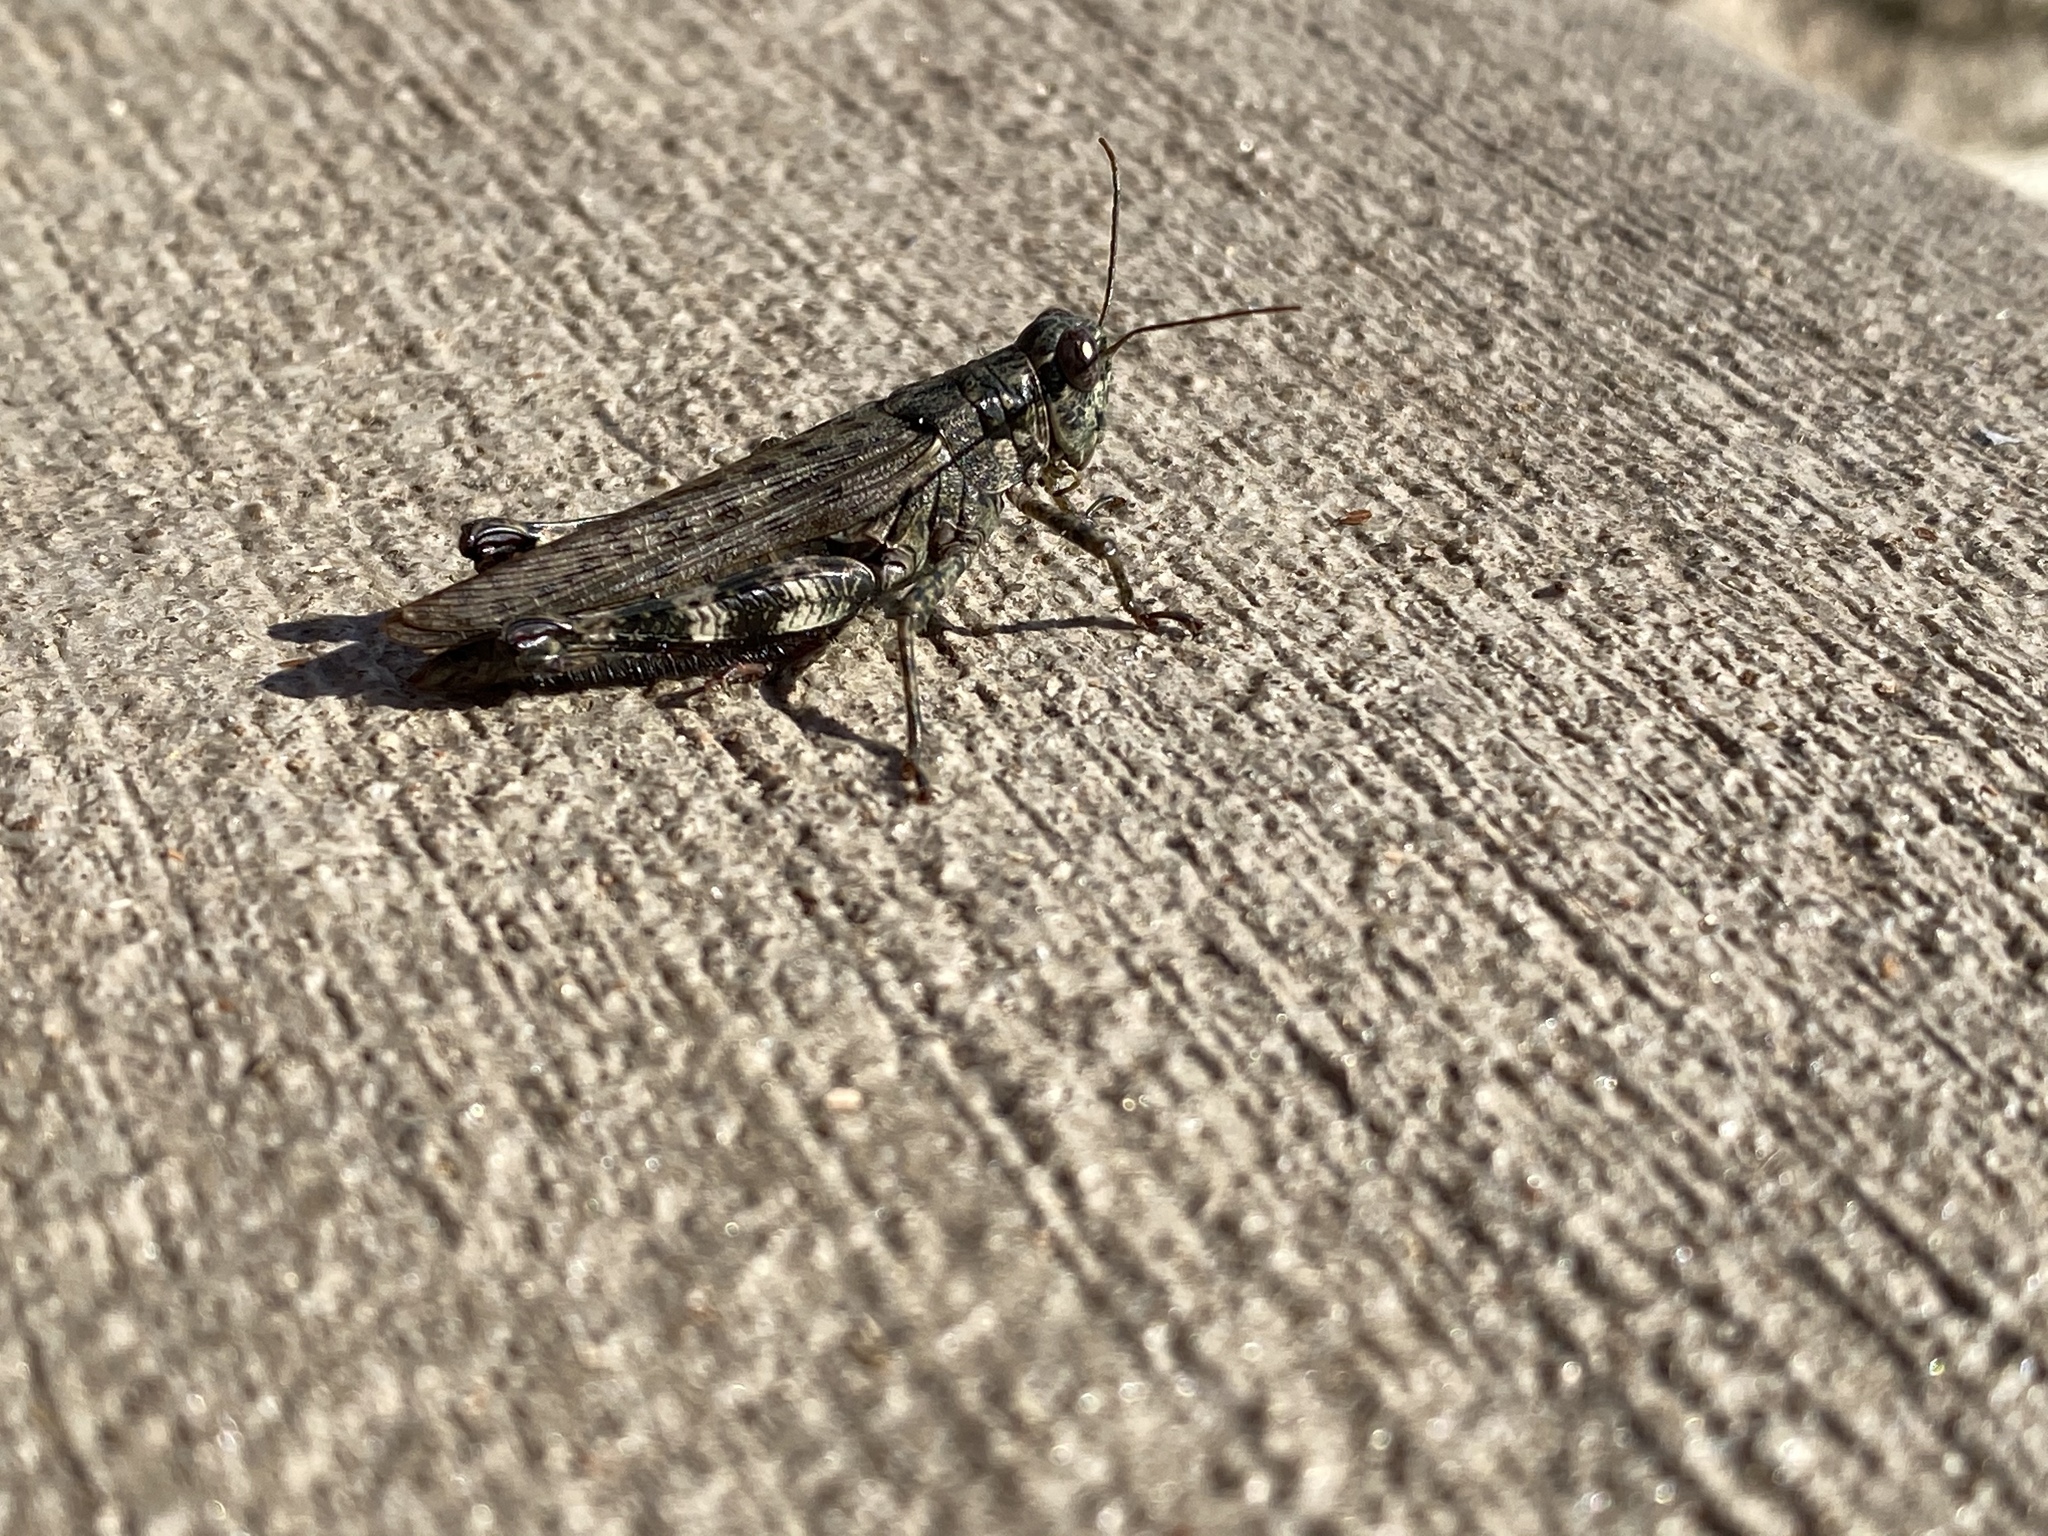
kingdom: Animalia
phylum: Arthropoda
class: Insecta
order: Orthoptera
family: Acrididae
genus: Melanoplus
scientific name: Melanoplus punctulatus
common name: Pine-tree spur-throat grasshopper
